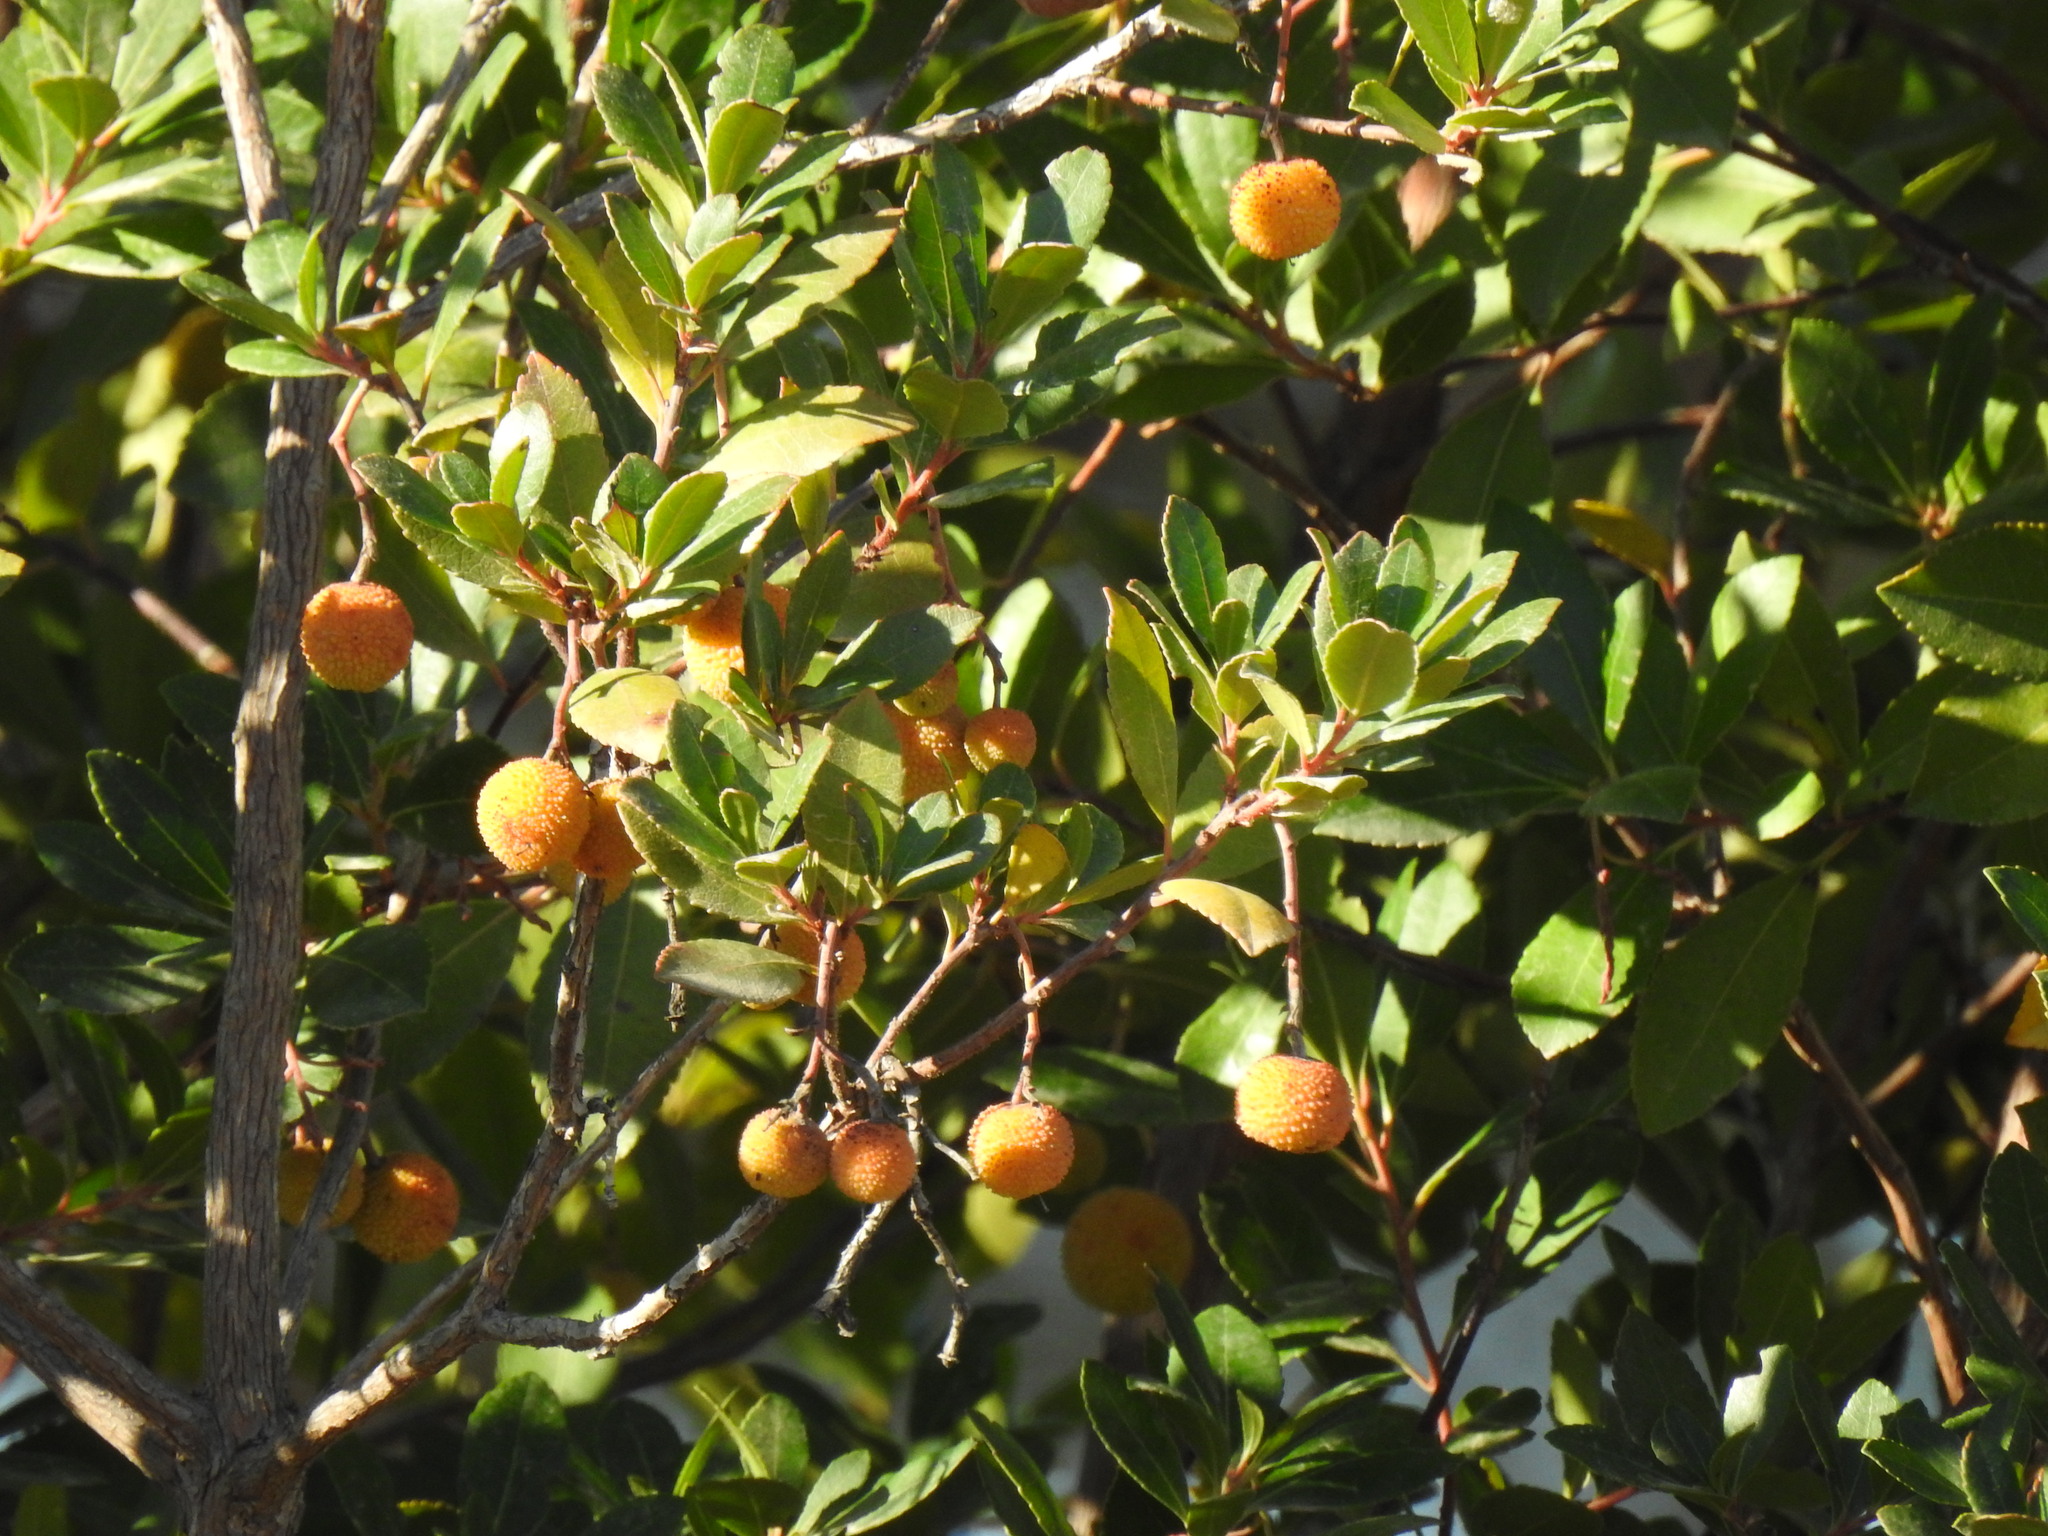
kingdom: Plantae
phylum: Tracheophyta
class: Magnoliopsida
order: Ericales
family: Ericaceae
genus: Arbutus
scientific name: Arbutus unedo
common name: Strawberry-tree
